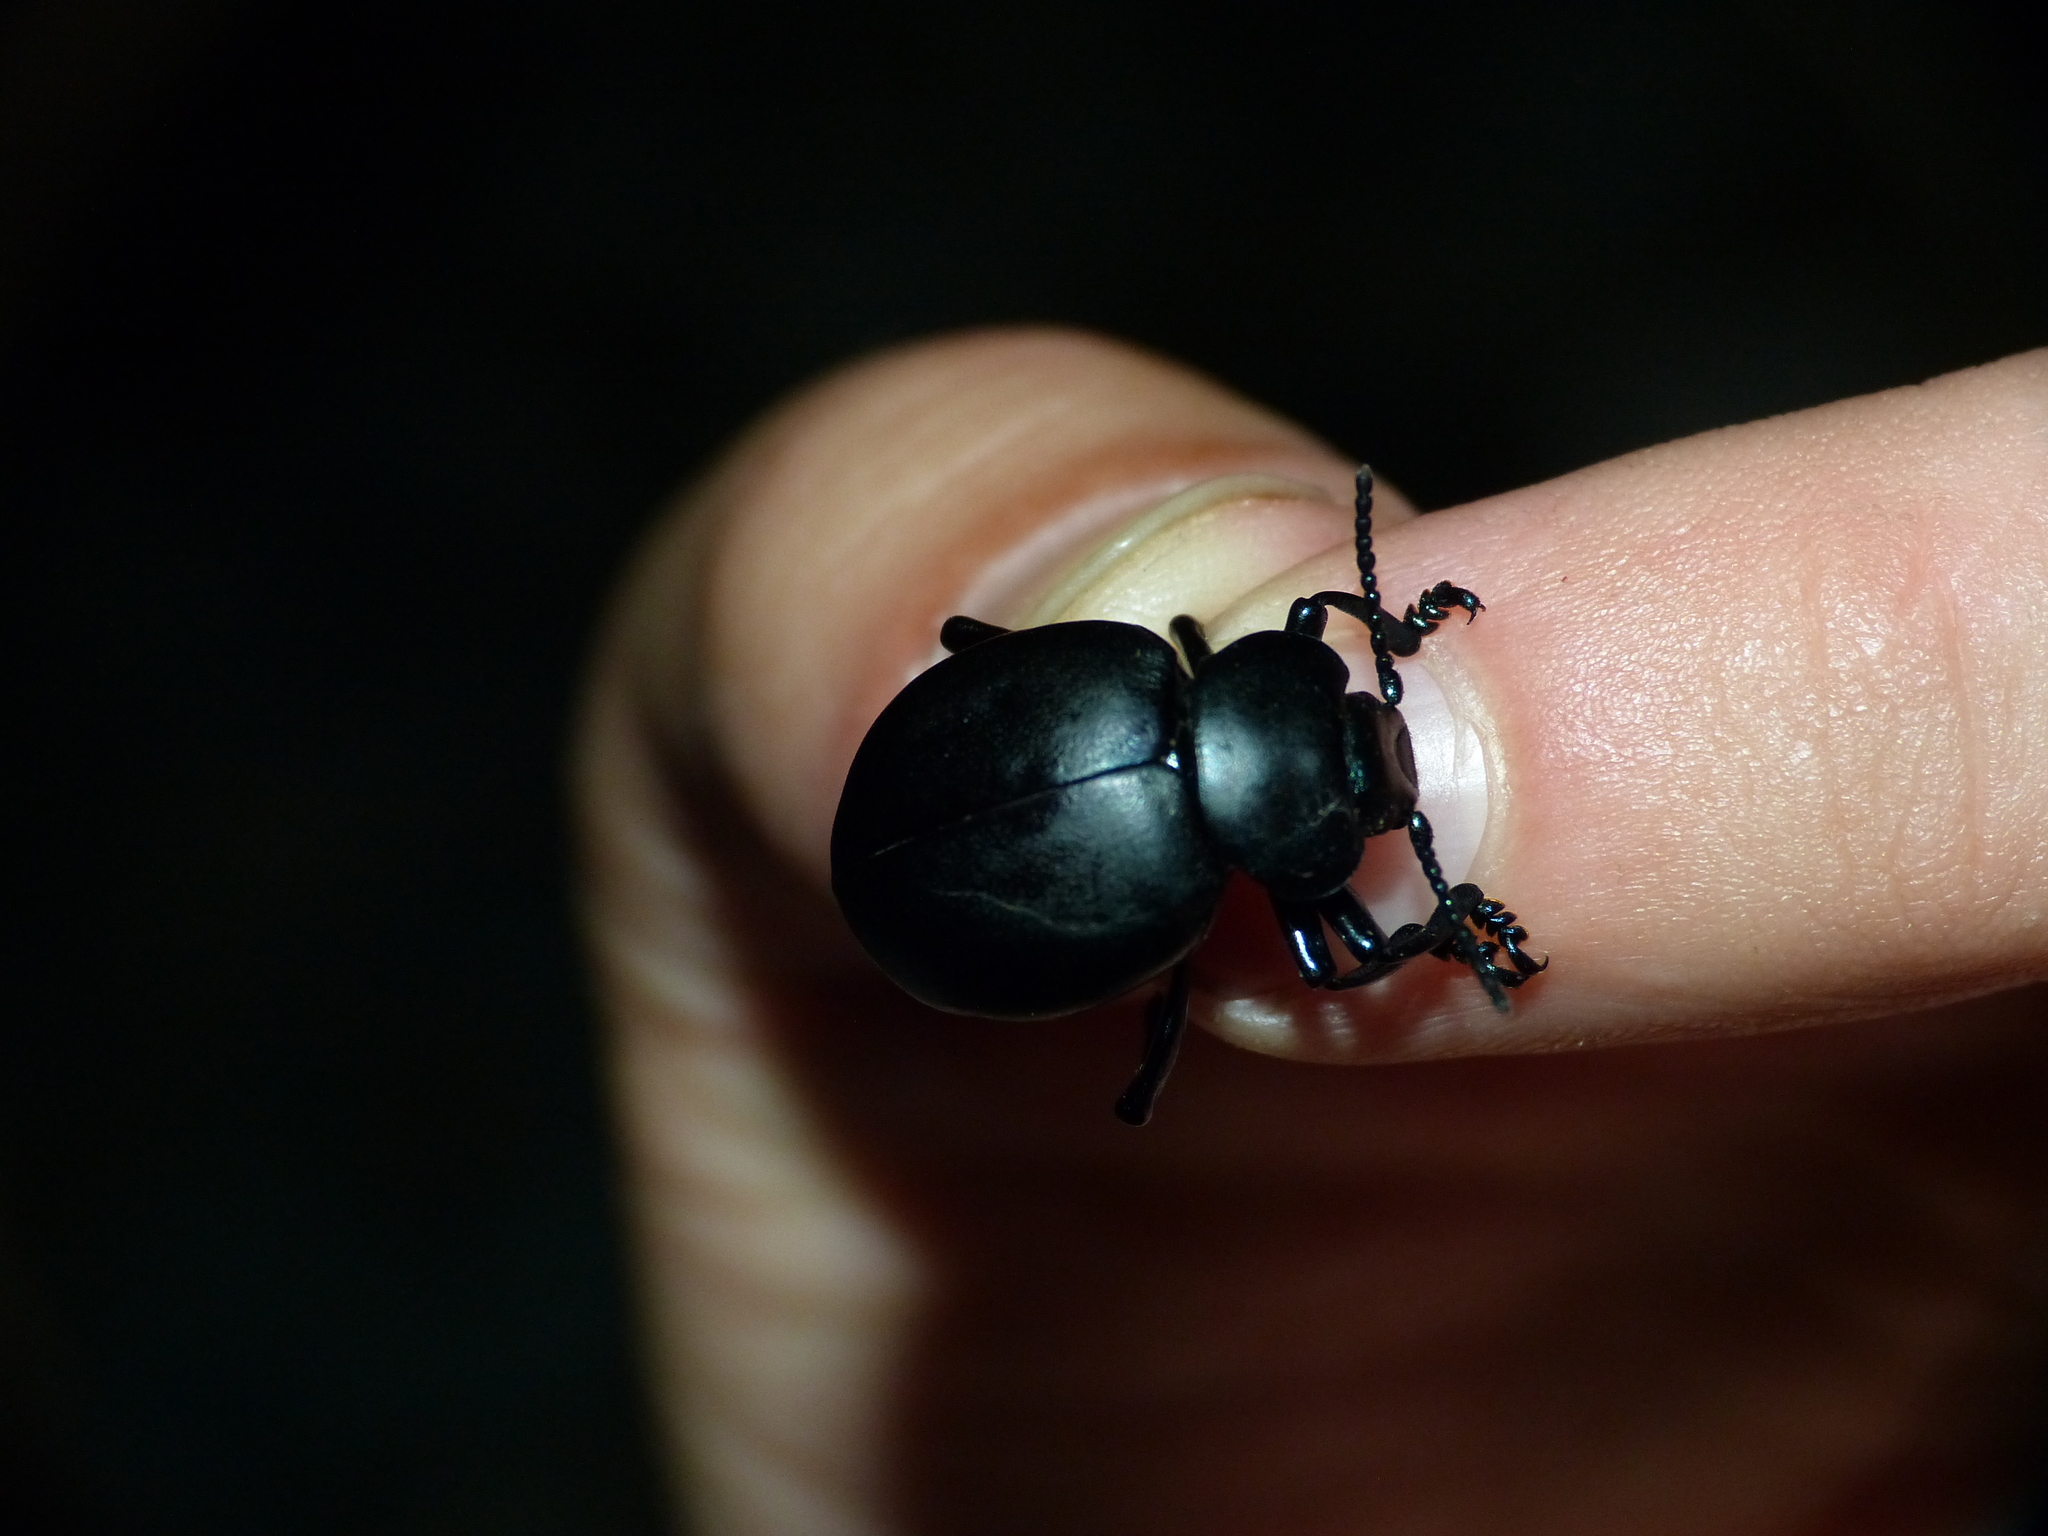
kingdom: Animalia
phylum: Arthropoda
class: Insecta
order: Coleoptera
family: Chrysomelidae
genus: Timarcha
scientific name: Timarcha tenebricosa
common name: Bloody-nosed beetle
